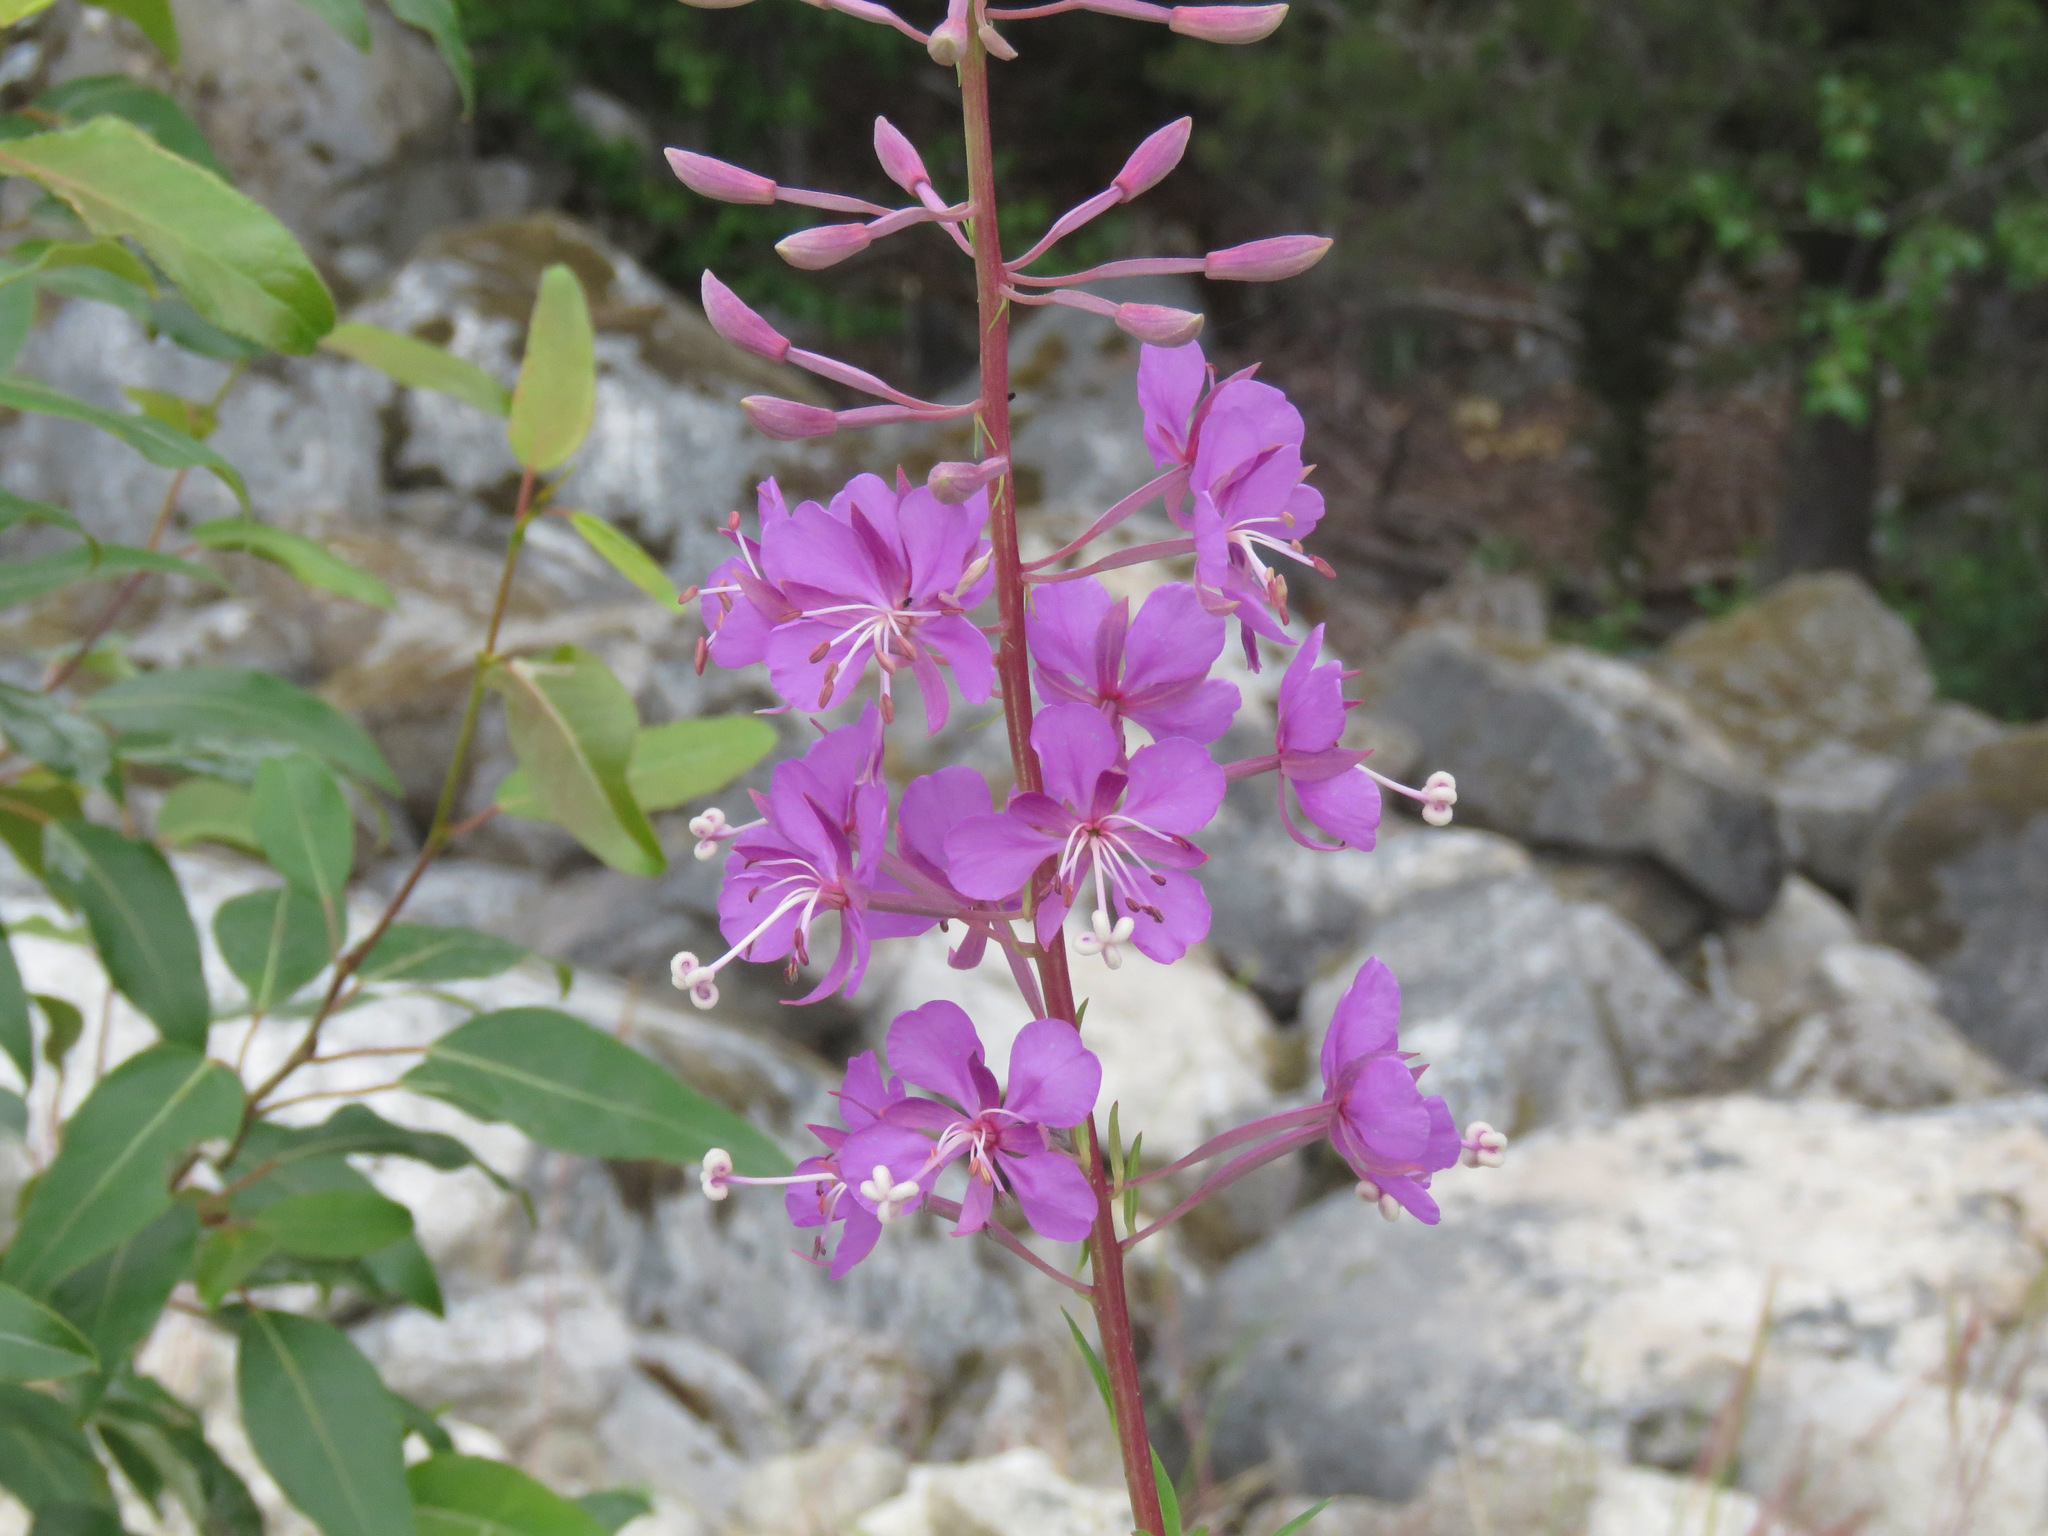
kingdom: Plantae
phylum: Tracheophyta
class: Magnoliopsida
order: Myrtales
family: Onagraceae
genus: Chamaenerion
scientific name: Chamaenerion angustifolium
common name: Fireweed
